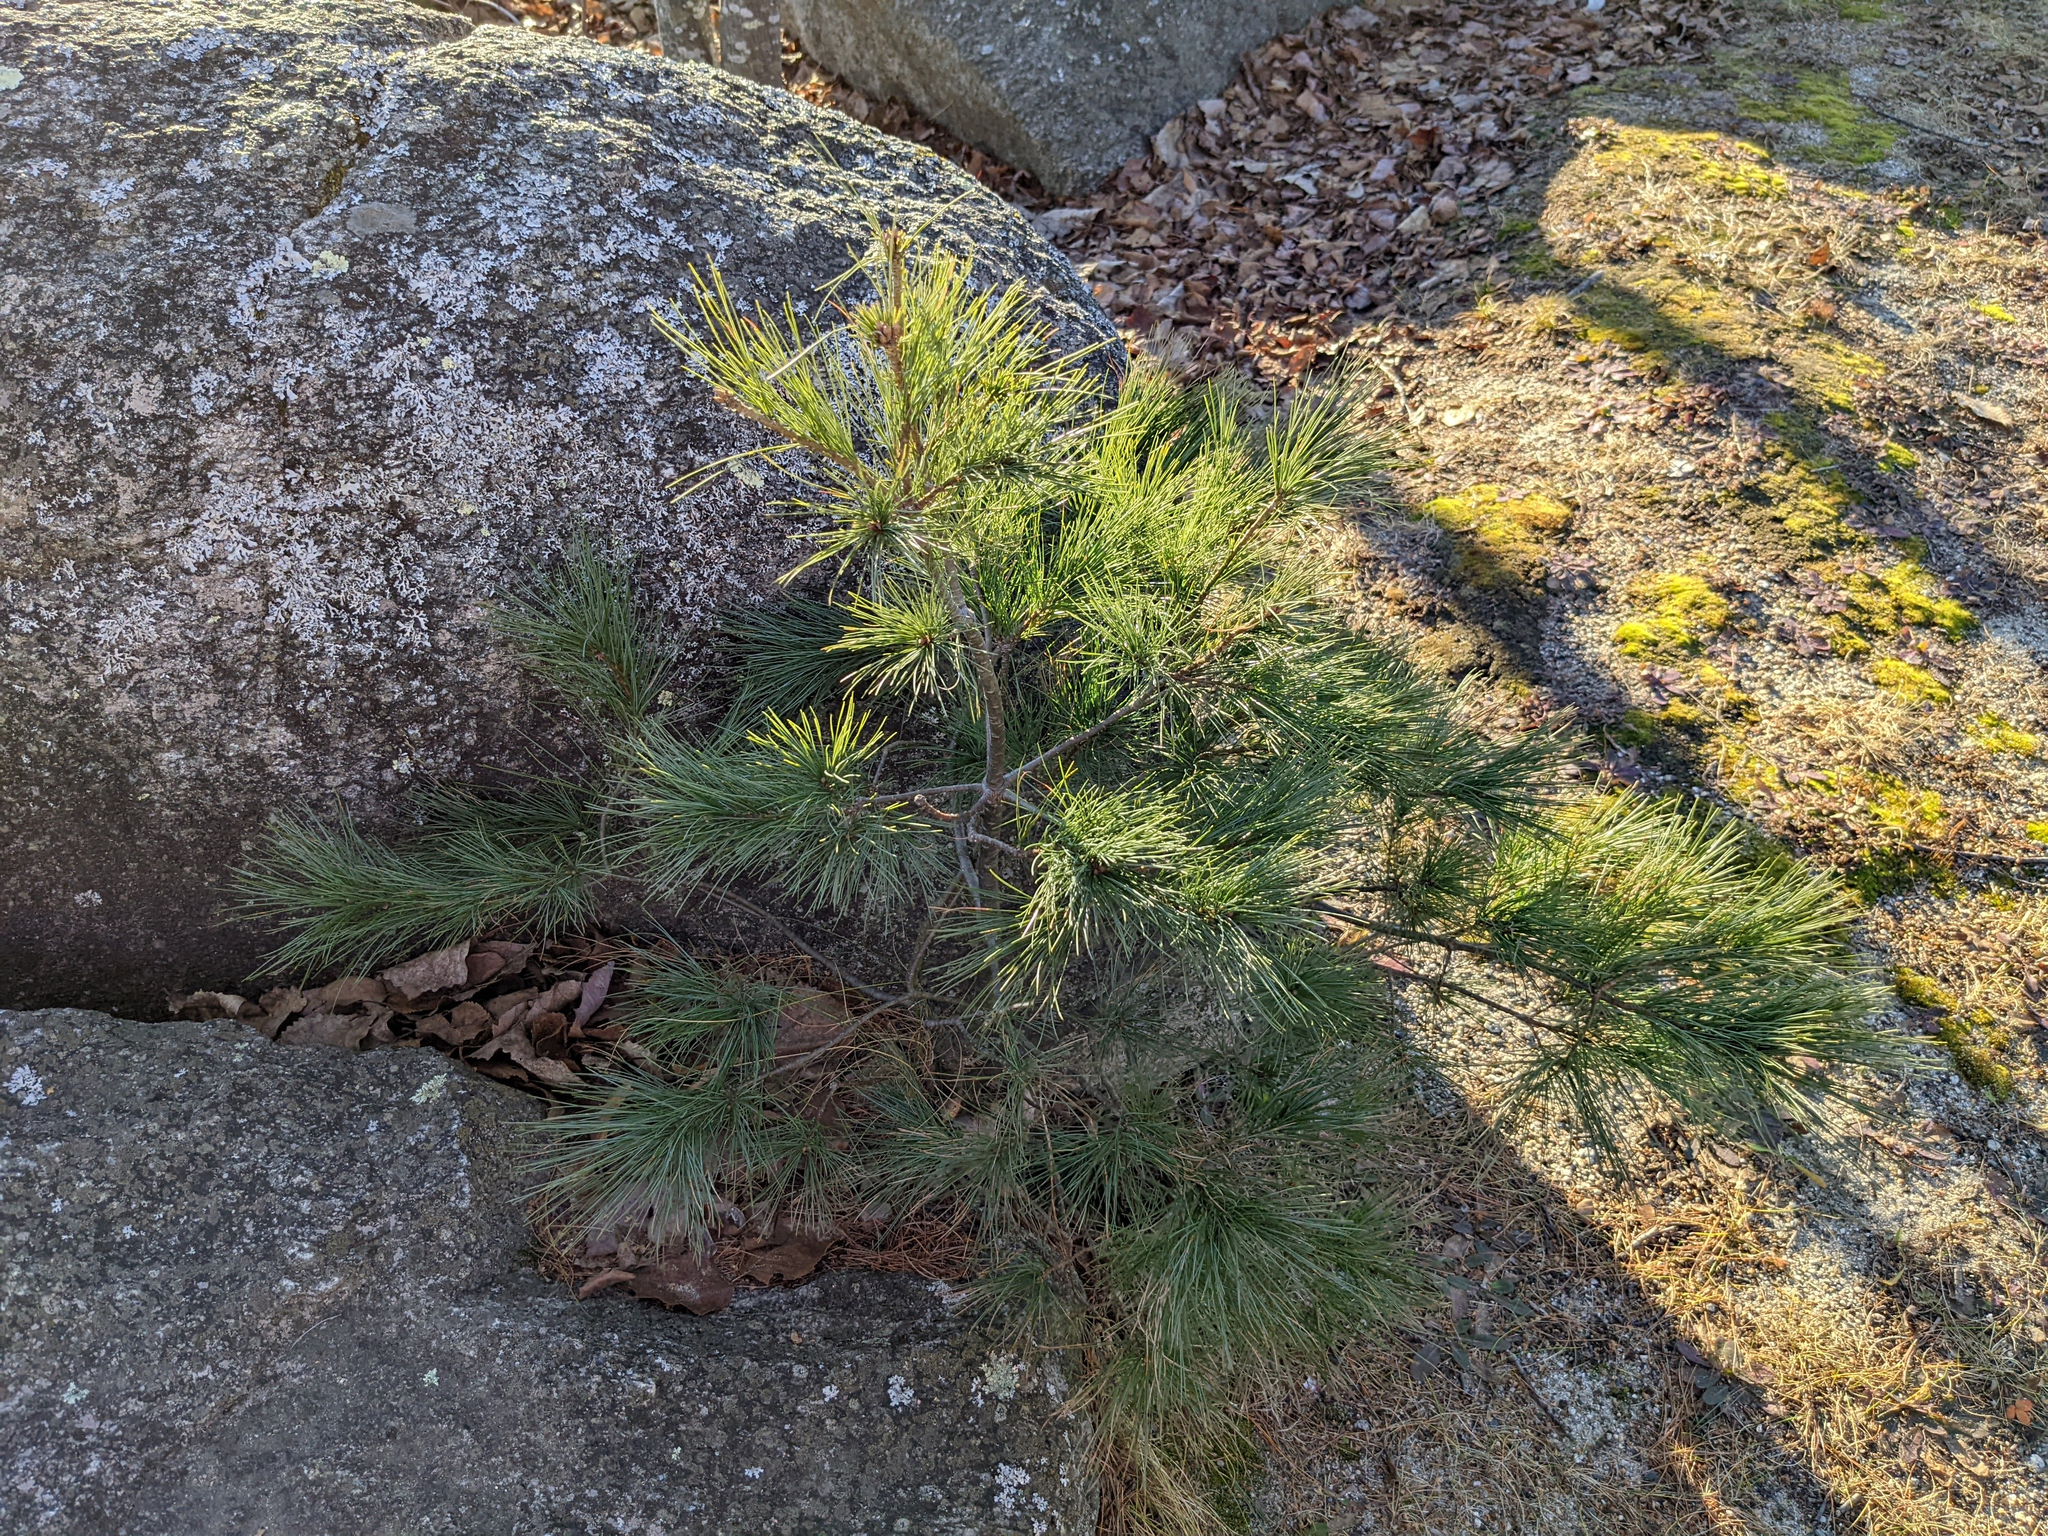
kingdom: Plantae
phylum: Tracheophyta
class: Pinopsida
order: Pinales
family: Pinaceae
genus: Pinus
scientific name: Pinus strobus
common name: Weymouth pine
